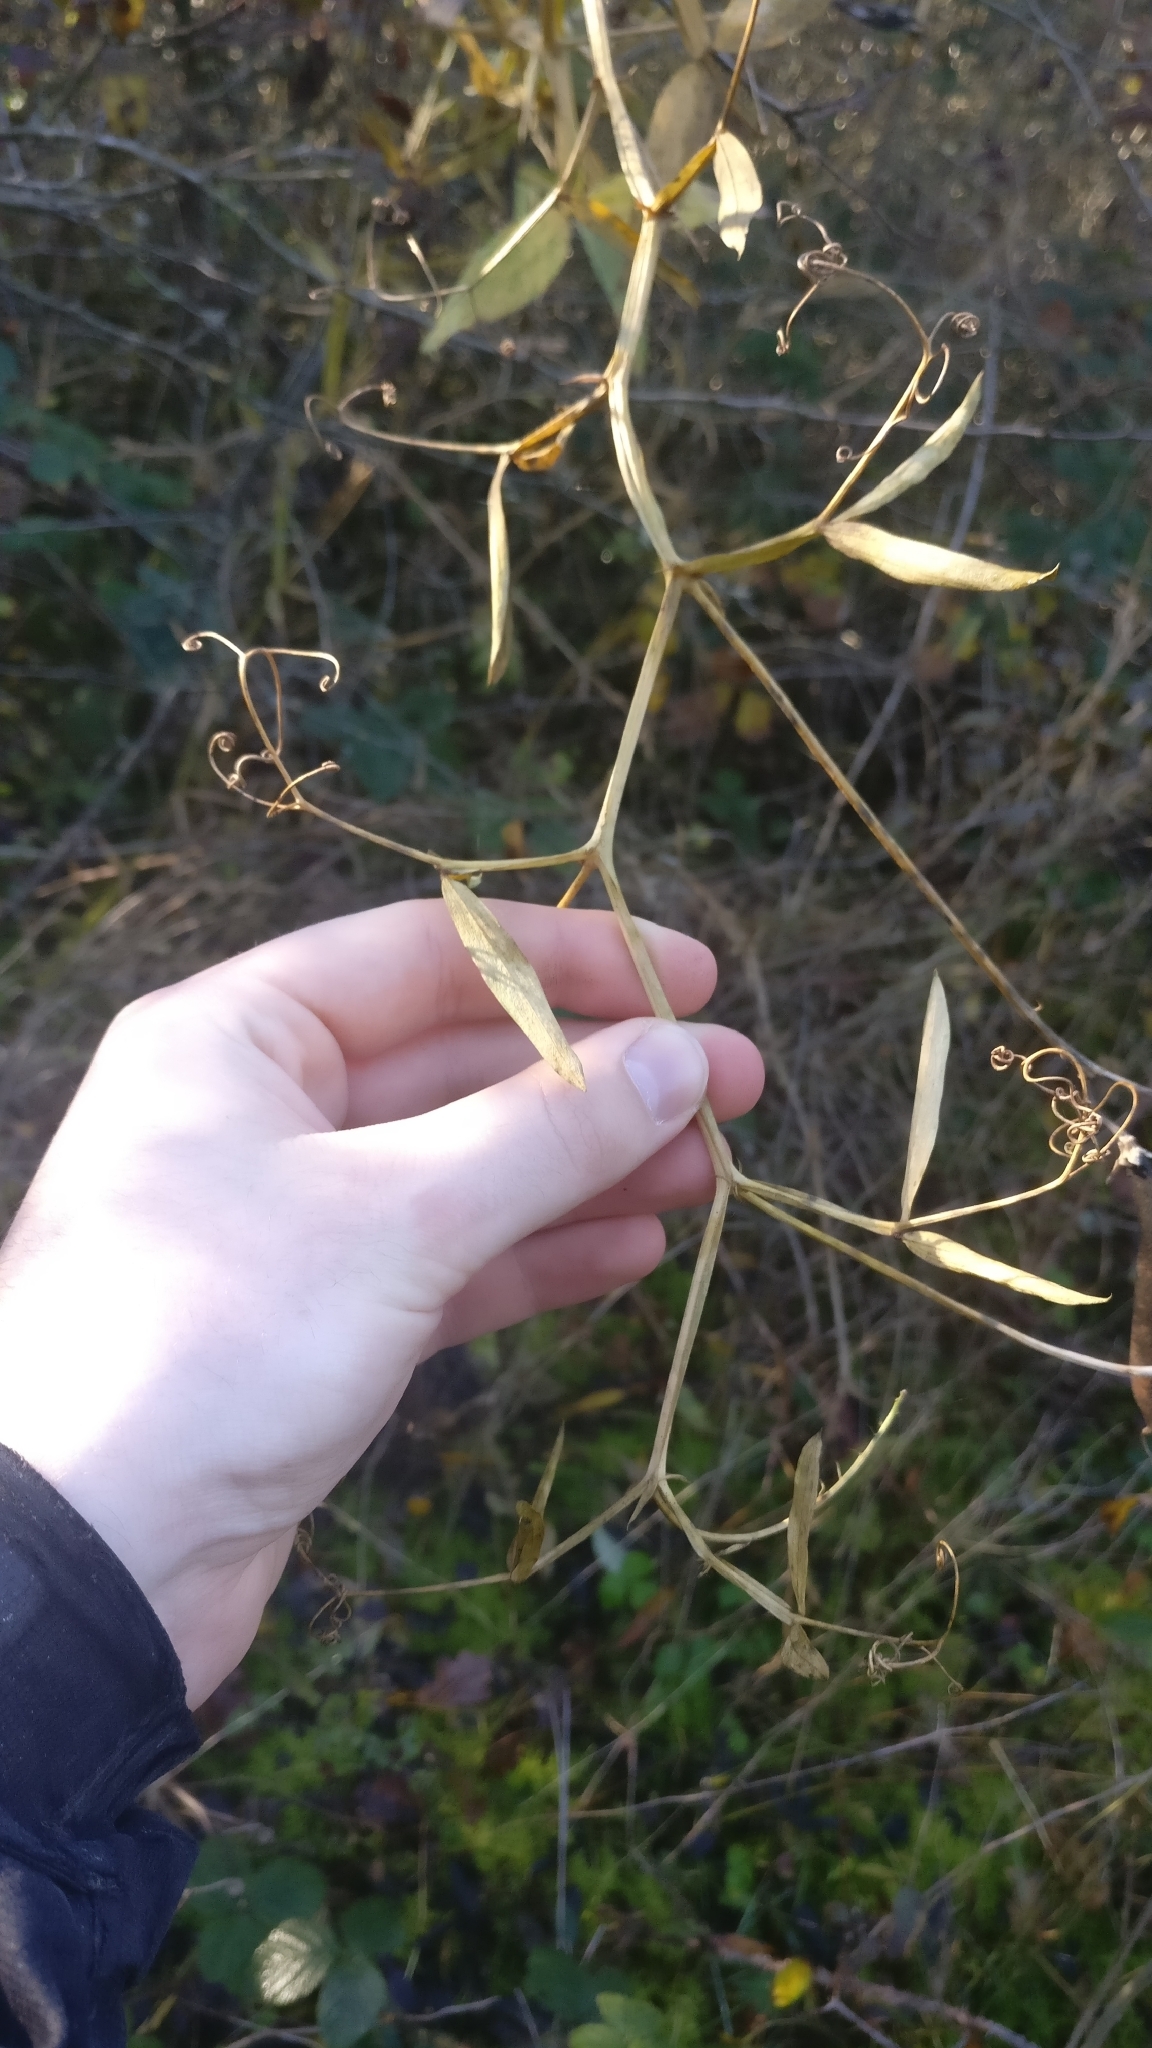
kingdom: Plantae
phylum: Tracheophyta
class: Magnoliopsida
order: Fabales
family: Fabaceae
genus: Lathyrus
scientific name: Lathyrus sylvestris
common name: Flat pea
